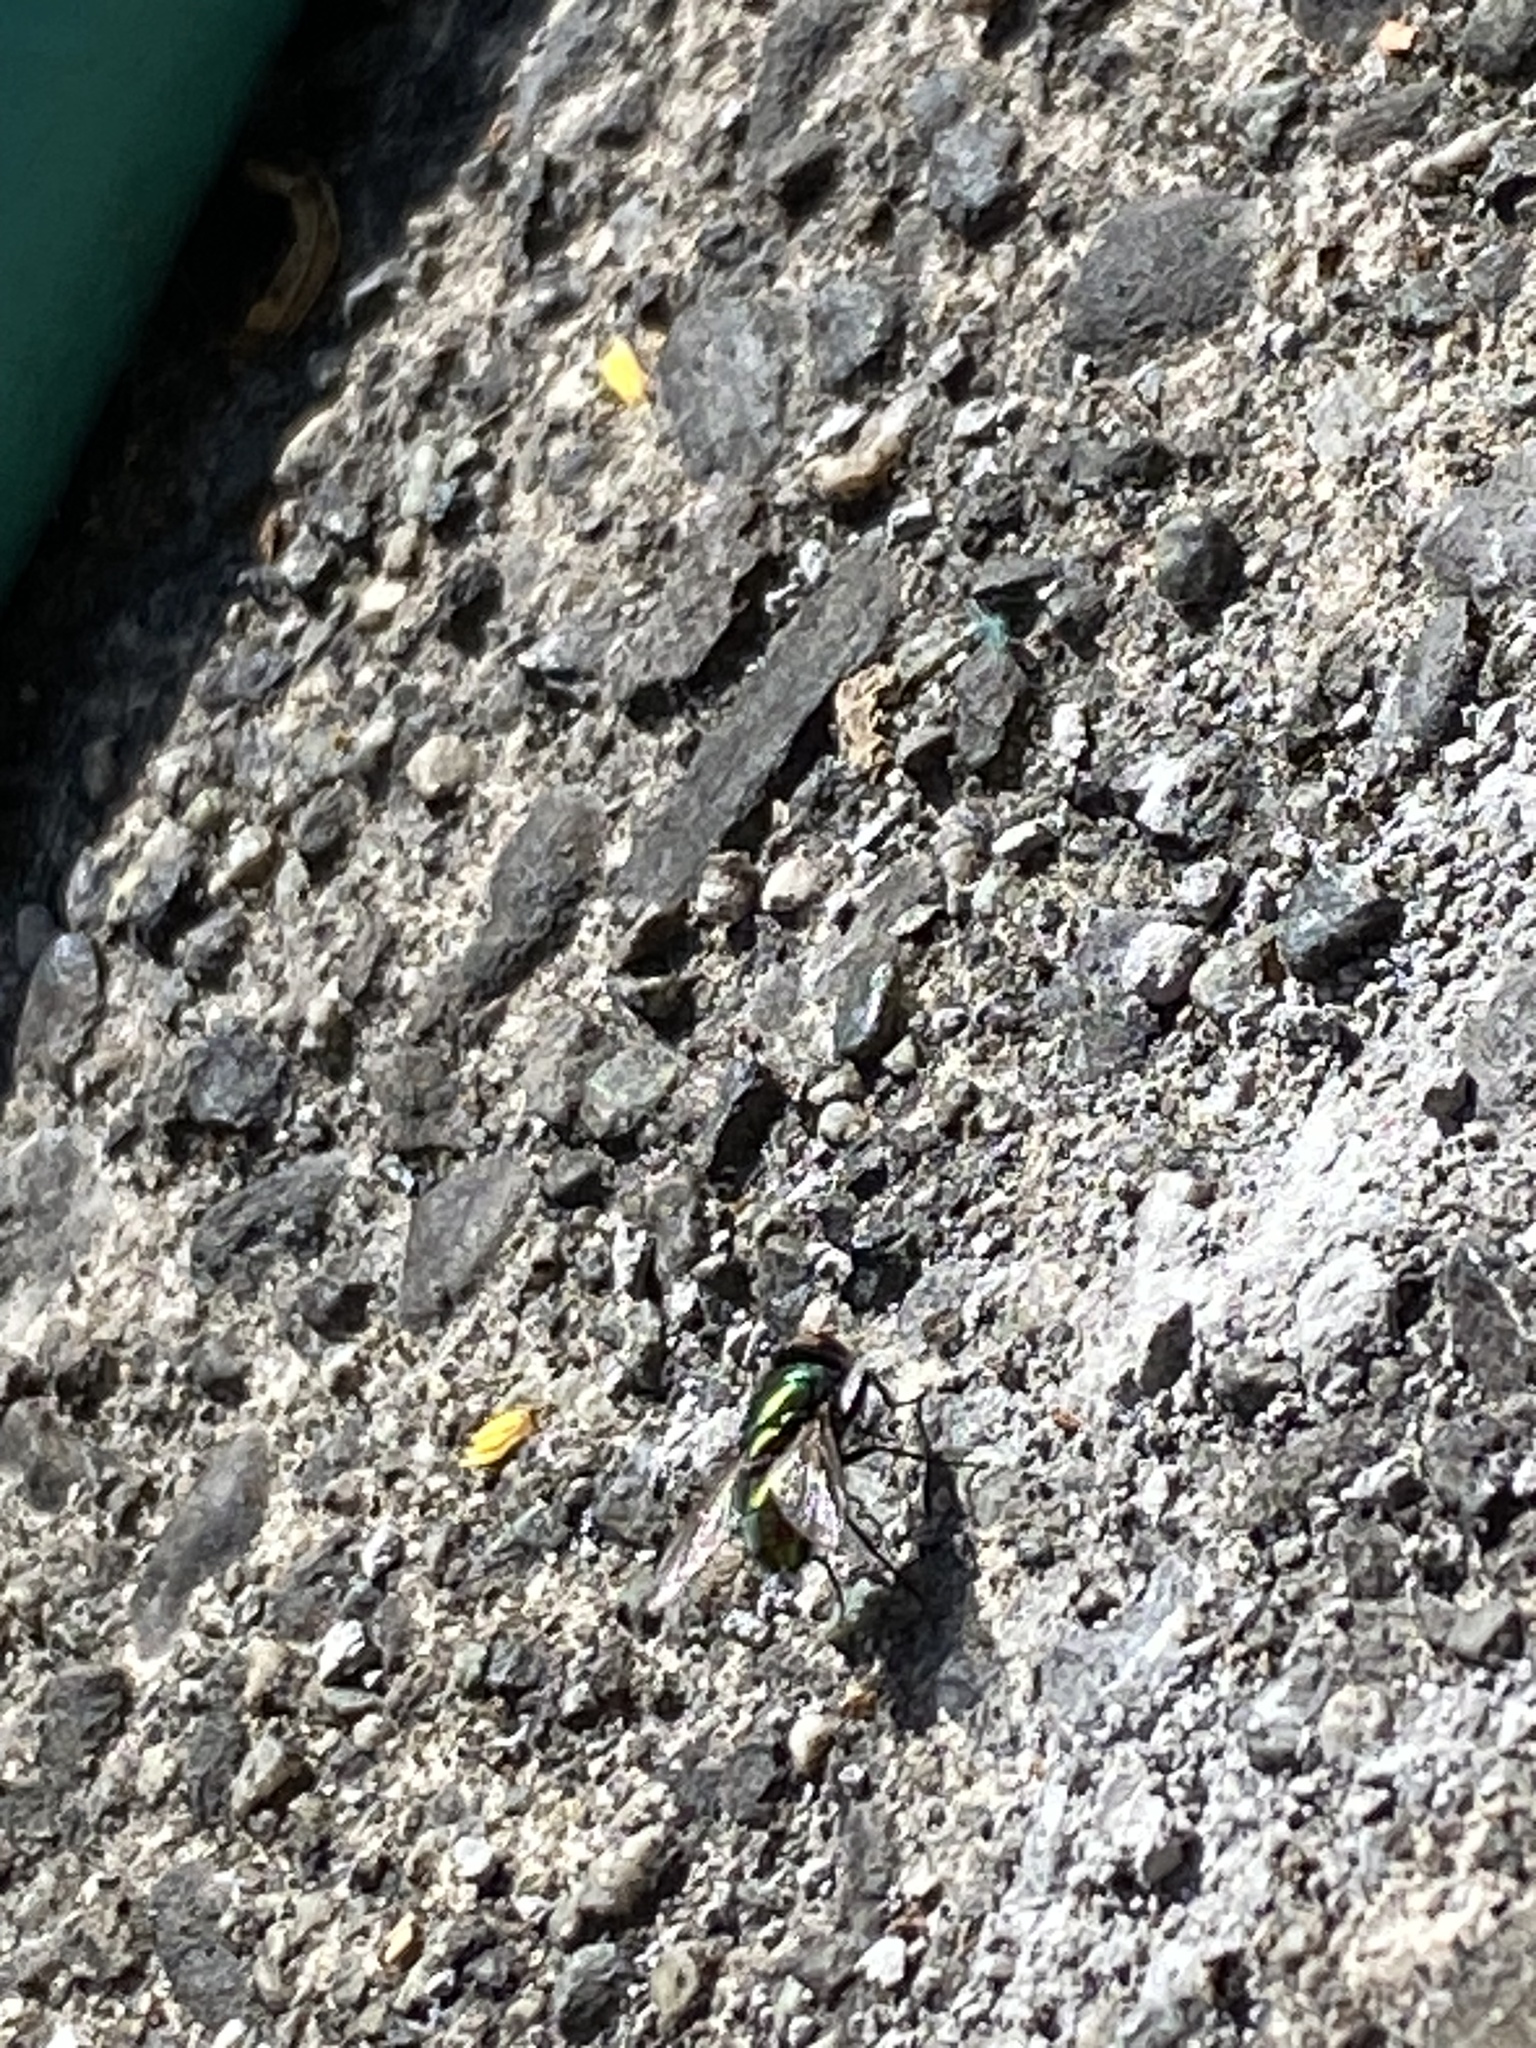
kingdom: Animalia
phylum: Arthropoda
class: Insecta
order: Diptera
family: Calliphoridae
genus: Lucilia
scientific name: Lucilia
